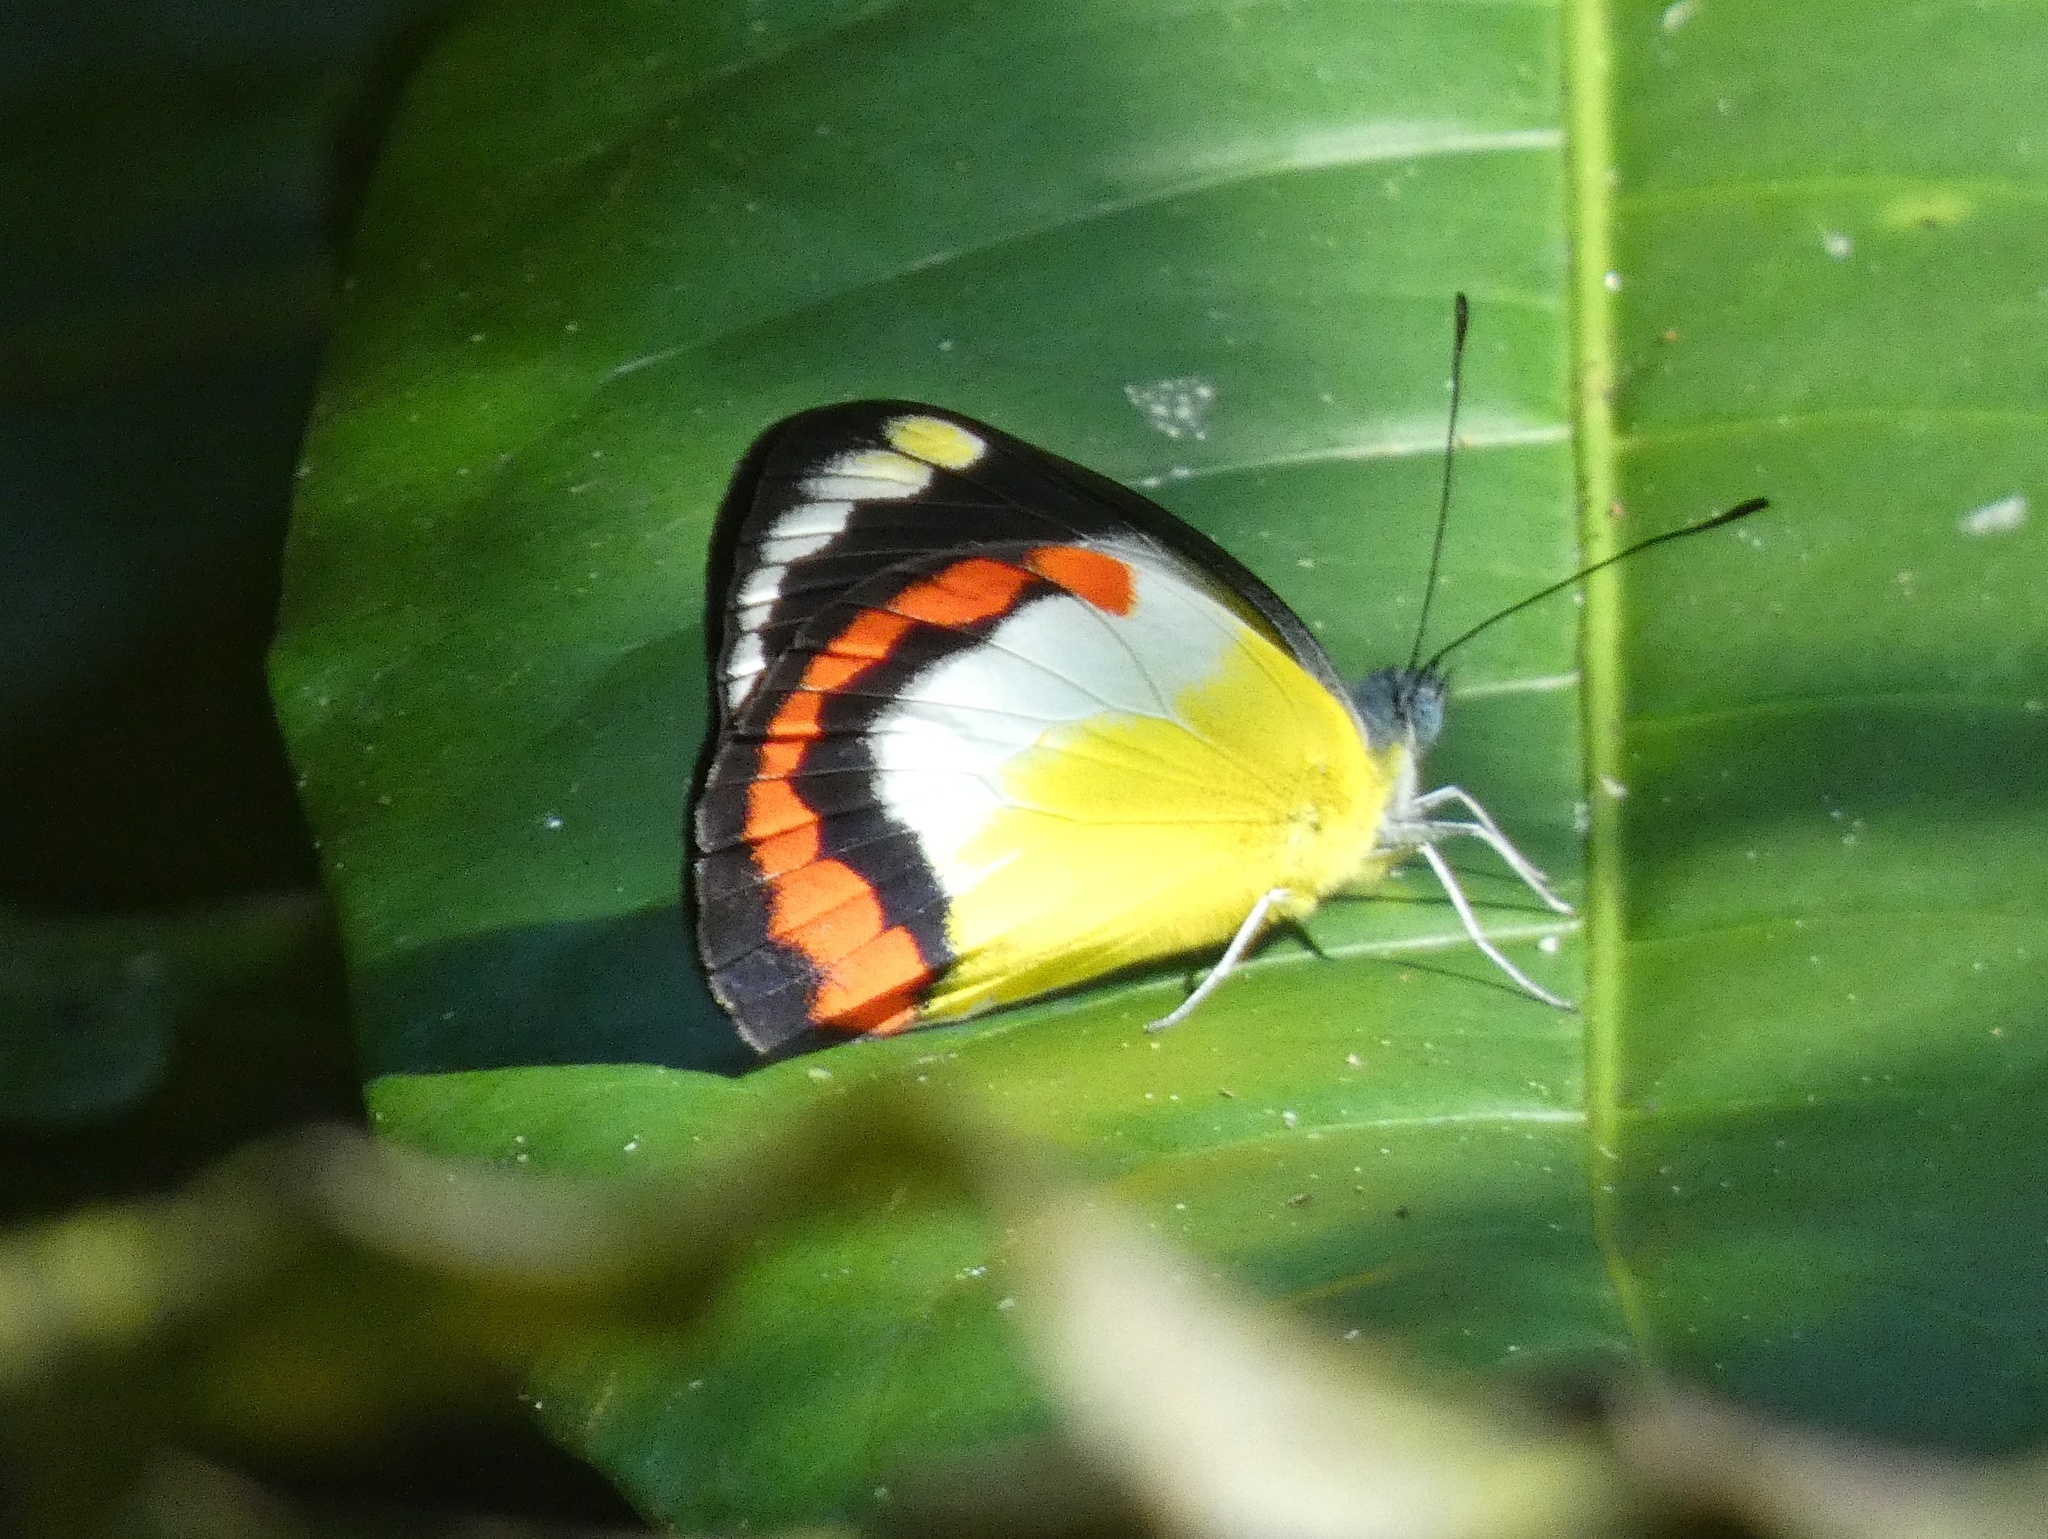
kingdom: Animalia
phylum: Arthropoda
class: Insecta
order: Lepidoptera
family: Pieridae
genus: Delias
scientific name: Delias mysis
